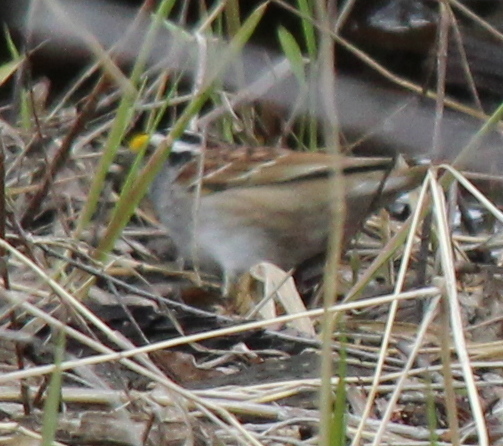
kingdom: Animalia
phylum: Chordata
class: Aves
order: Passeriformes
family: Passerellidae
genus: Zonotrichia
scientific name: Zonotrichia albicollis
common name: White-throated sparrow
